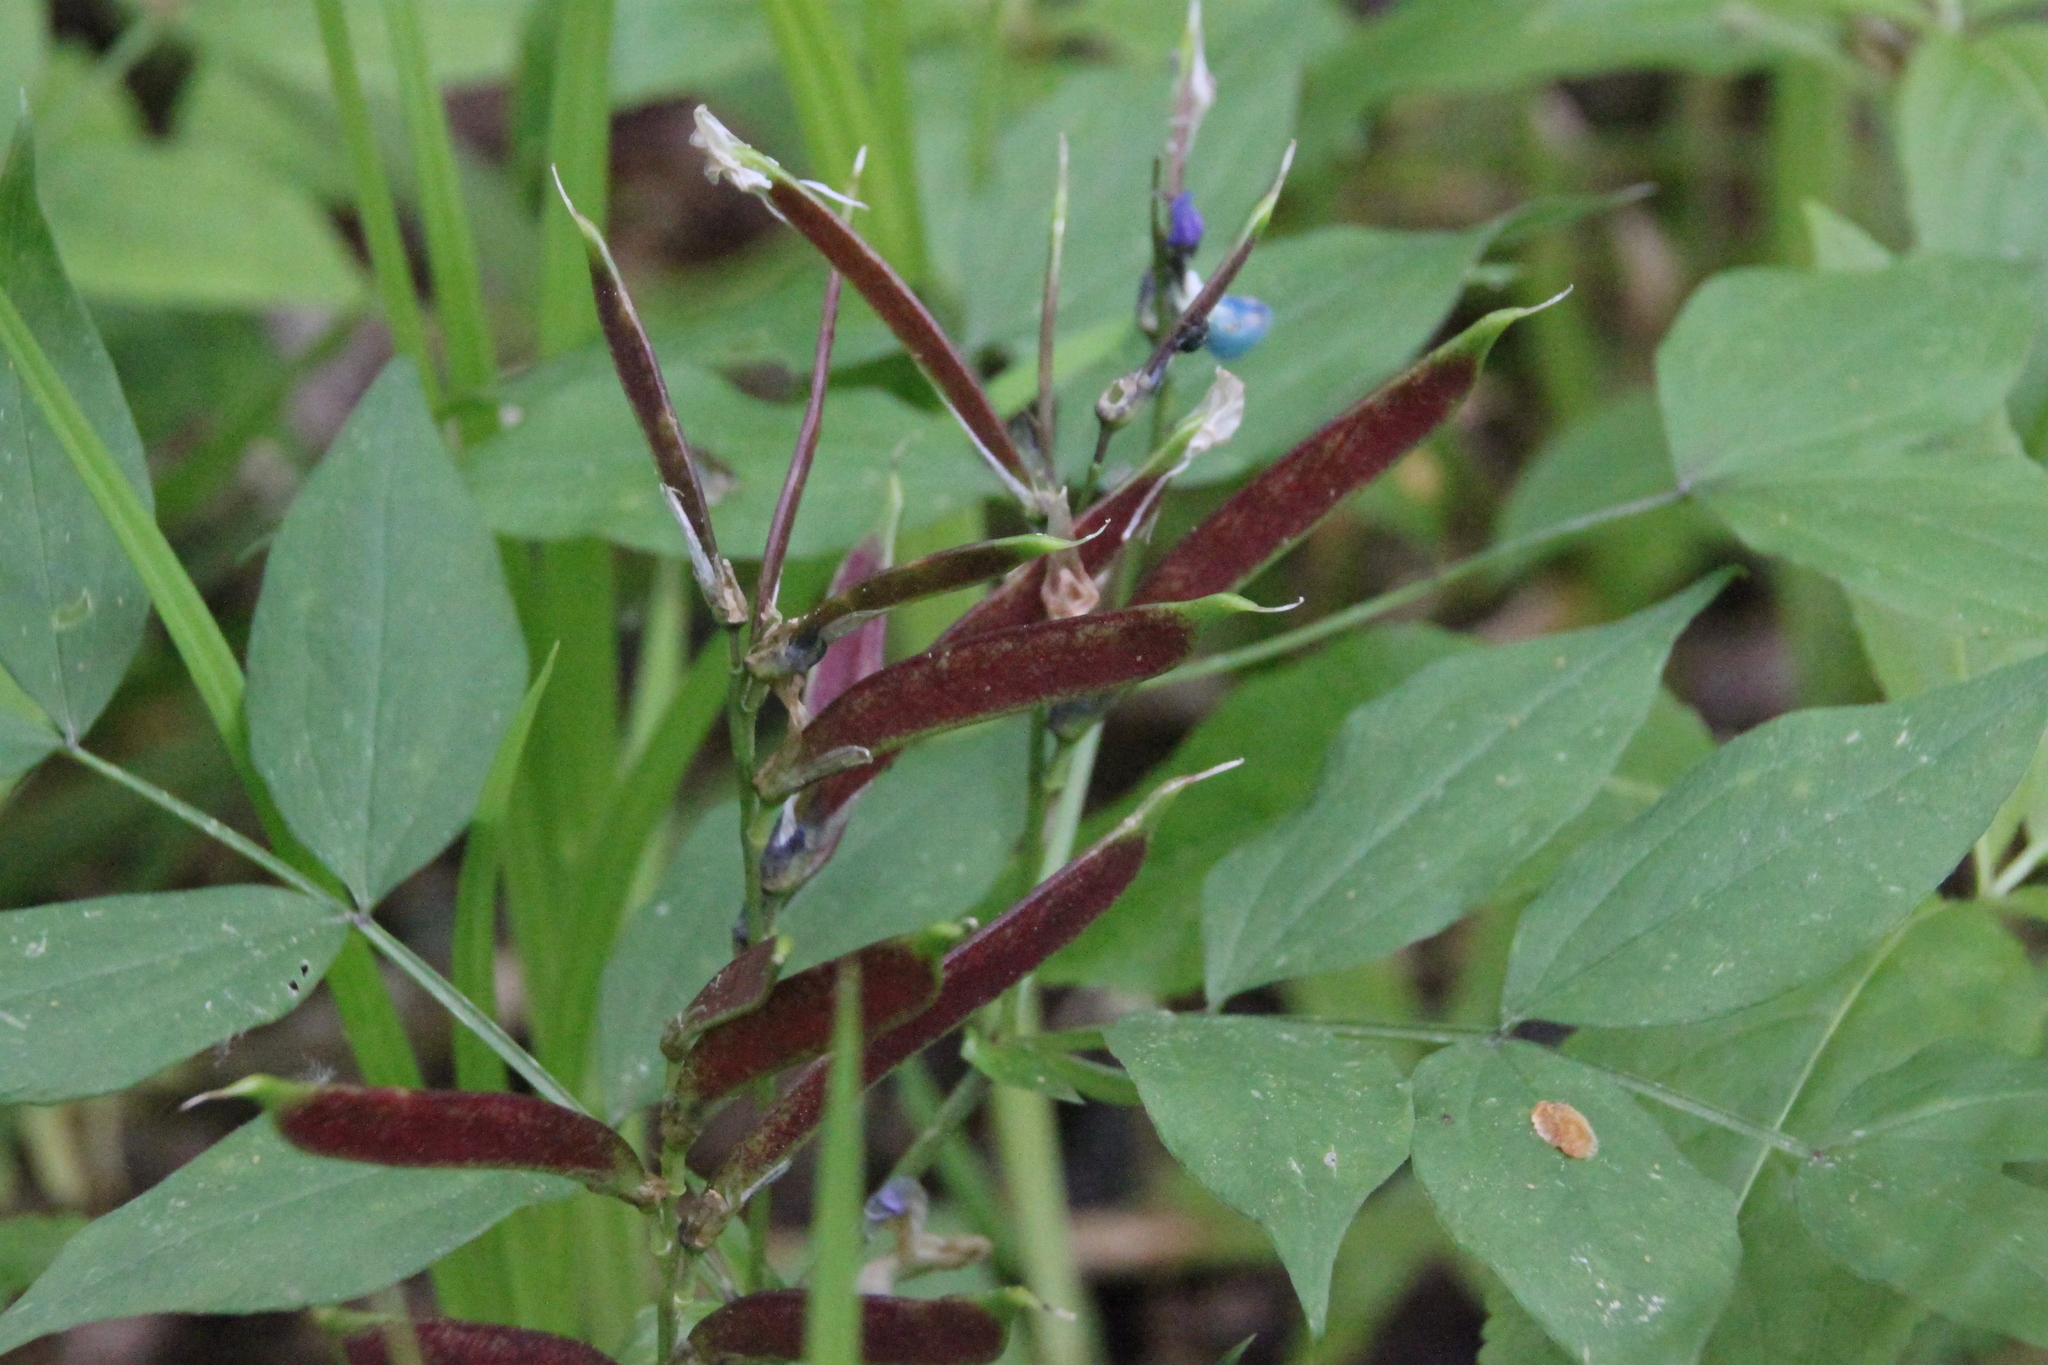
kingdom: Plantae
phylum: Tracheophyta
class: Magnoliopsida
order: Fabales
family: Fabaceae
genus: Lathyrus
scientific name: Lathyrus vernus
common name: Spring pea
